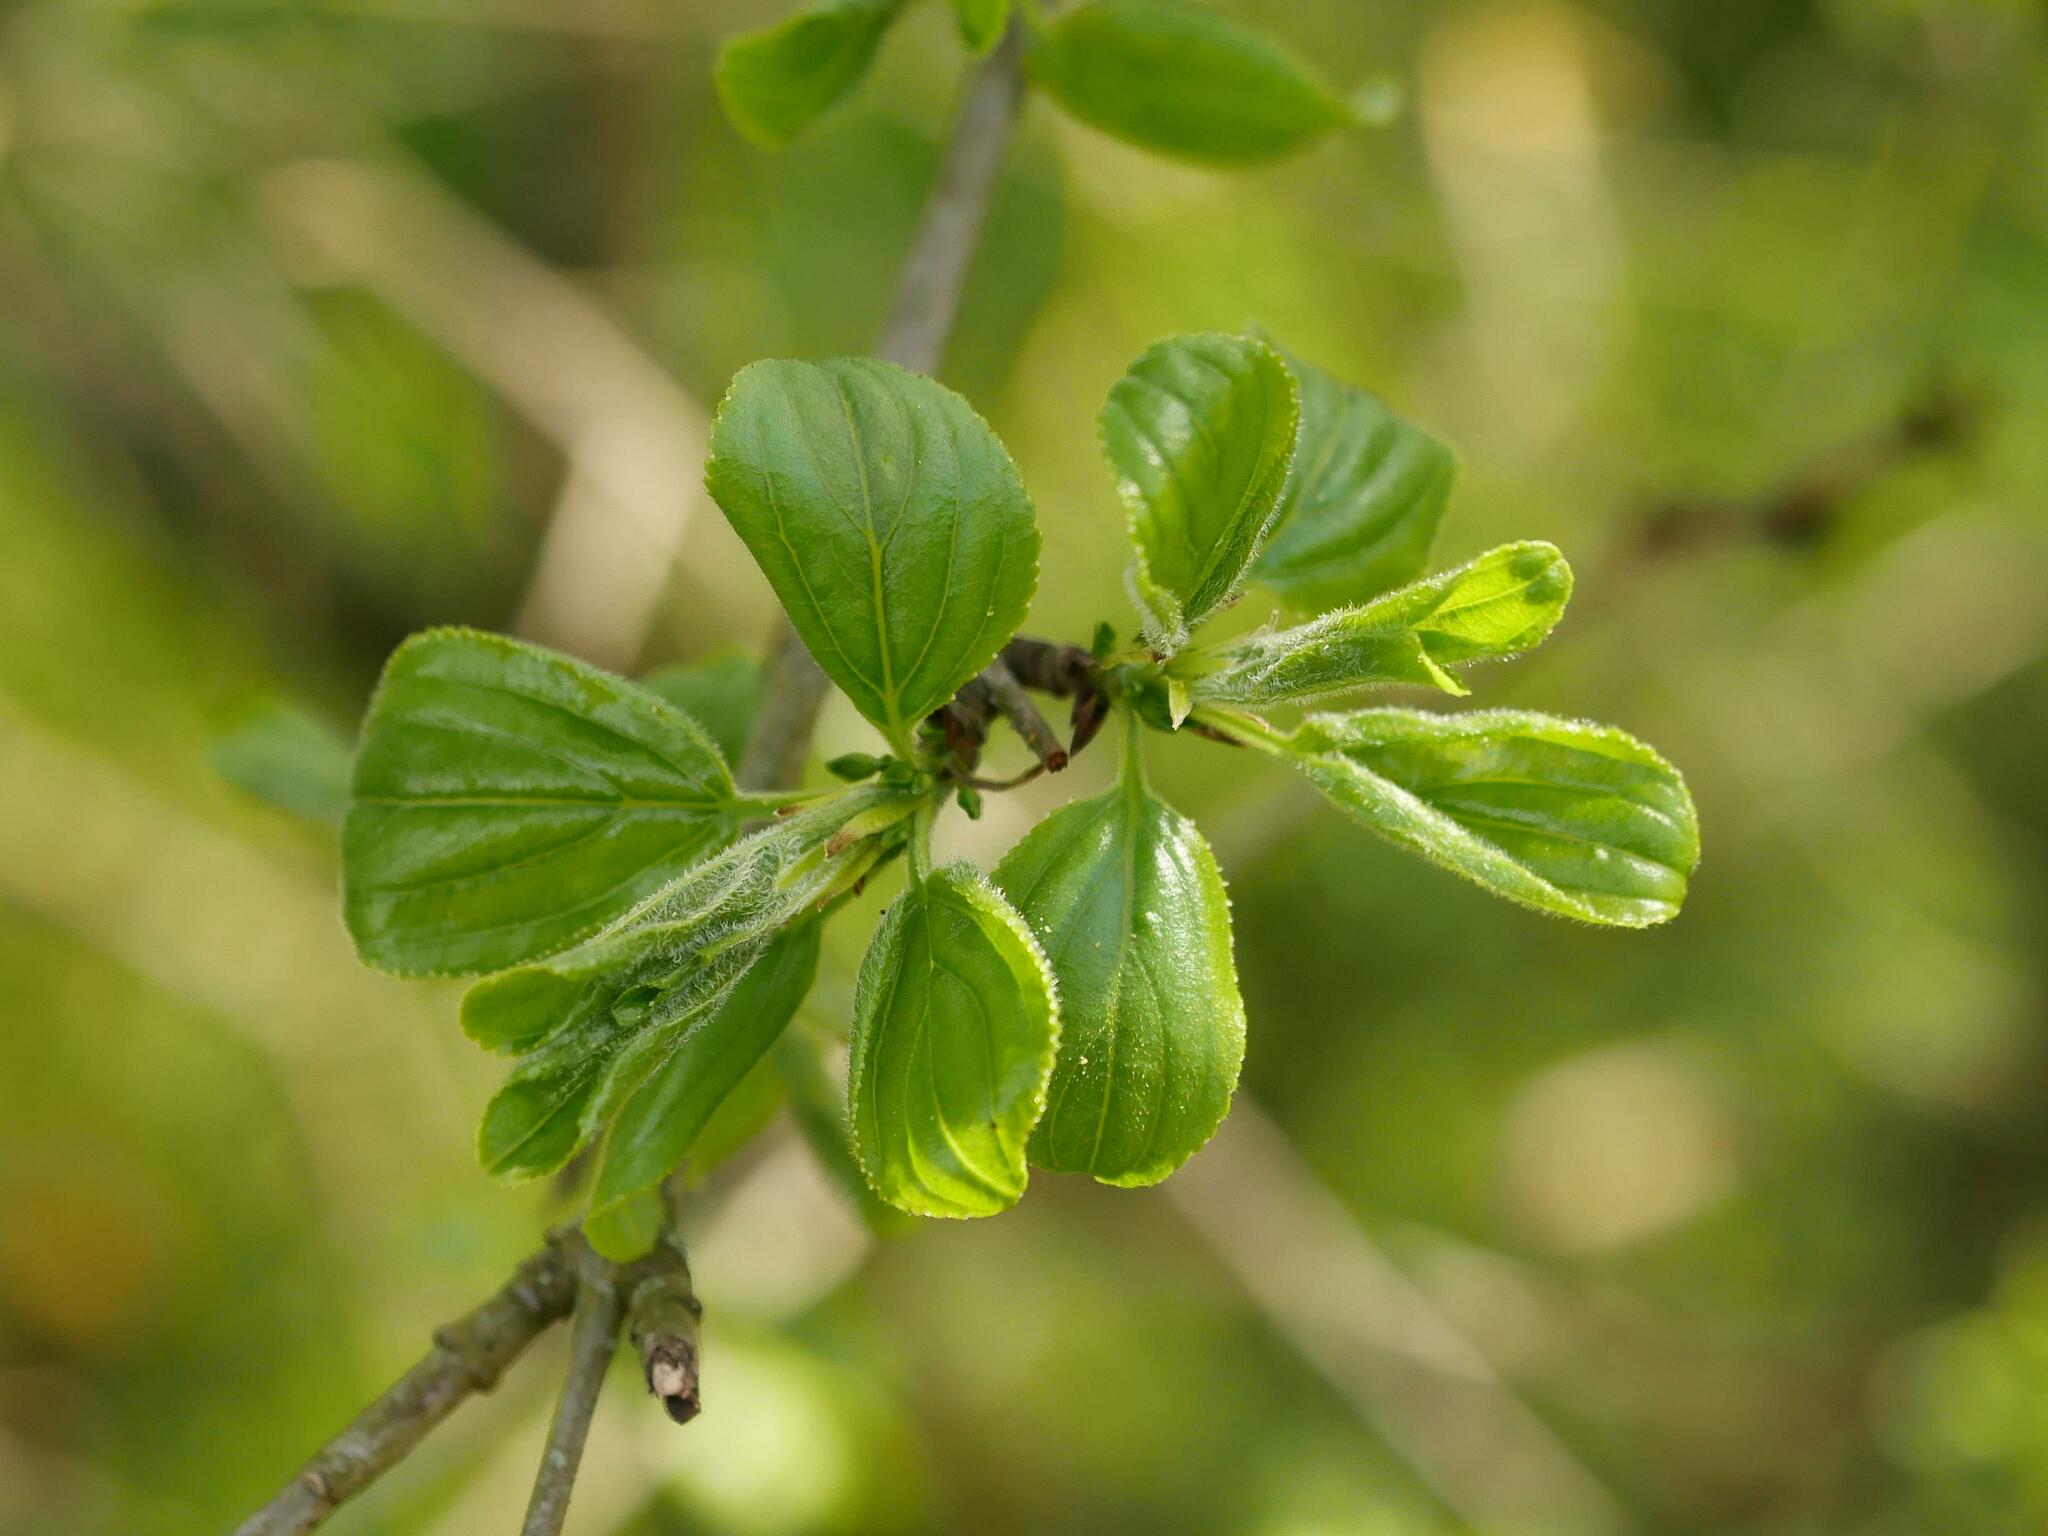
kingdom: Plantae
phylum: Tracheophyta
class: Magnoliopsida
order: Rosales
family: Rhamnaceae
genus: Rhamnus
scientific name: Rhamnus cathartica
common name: Common buckthorn
